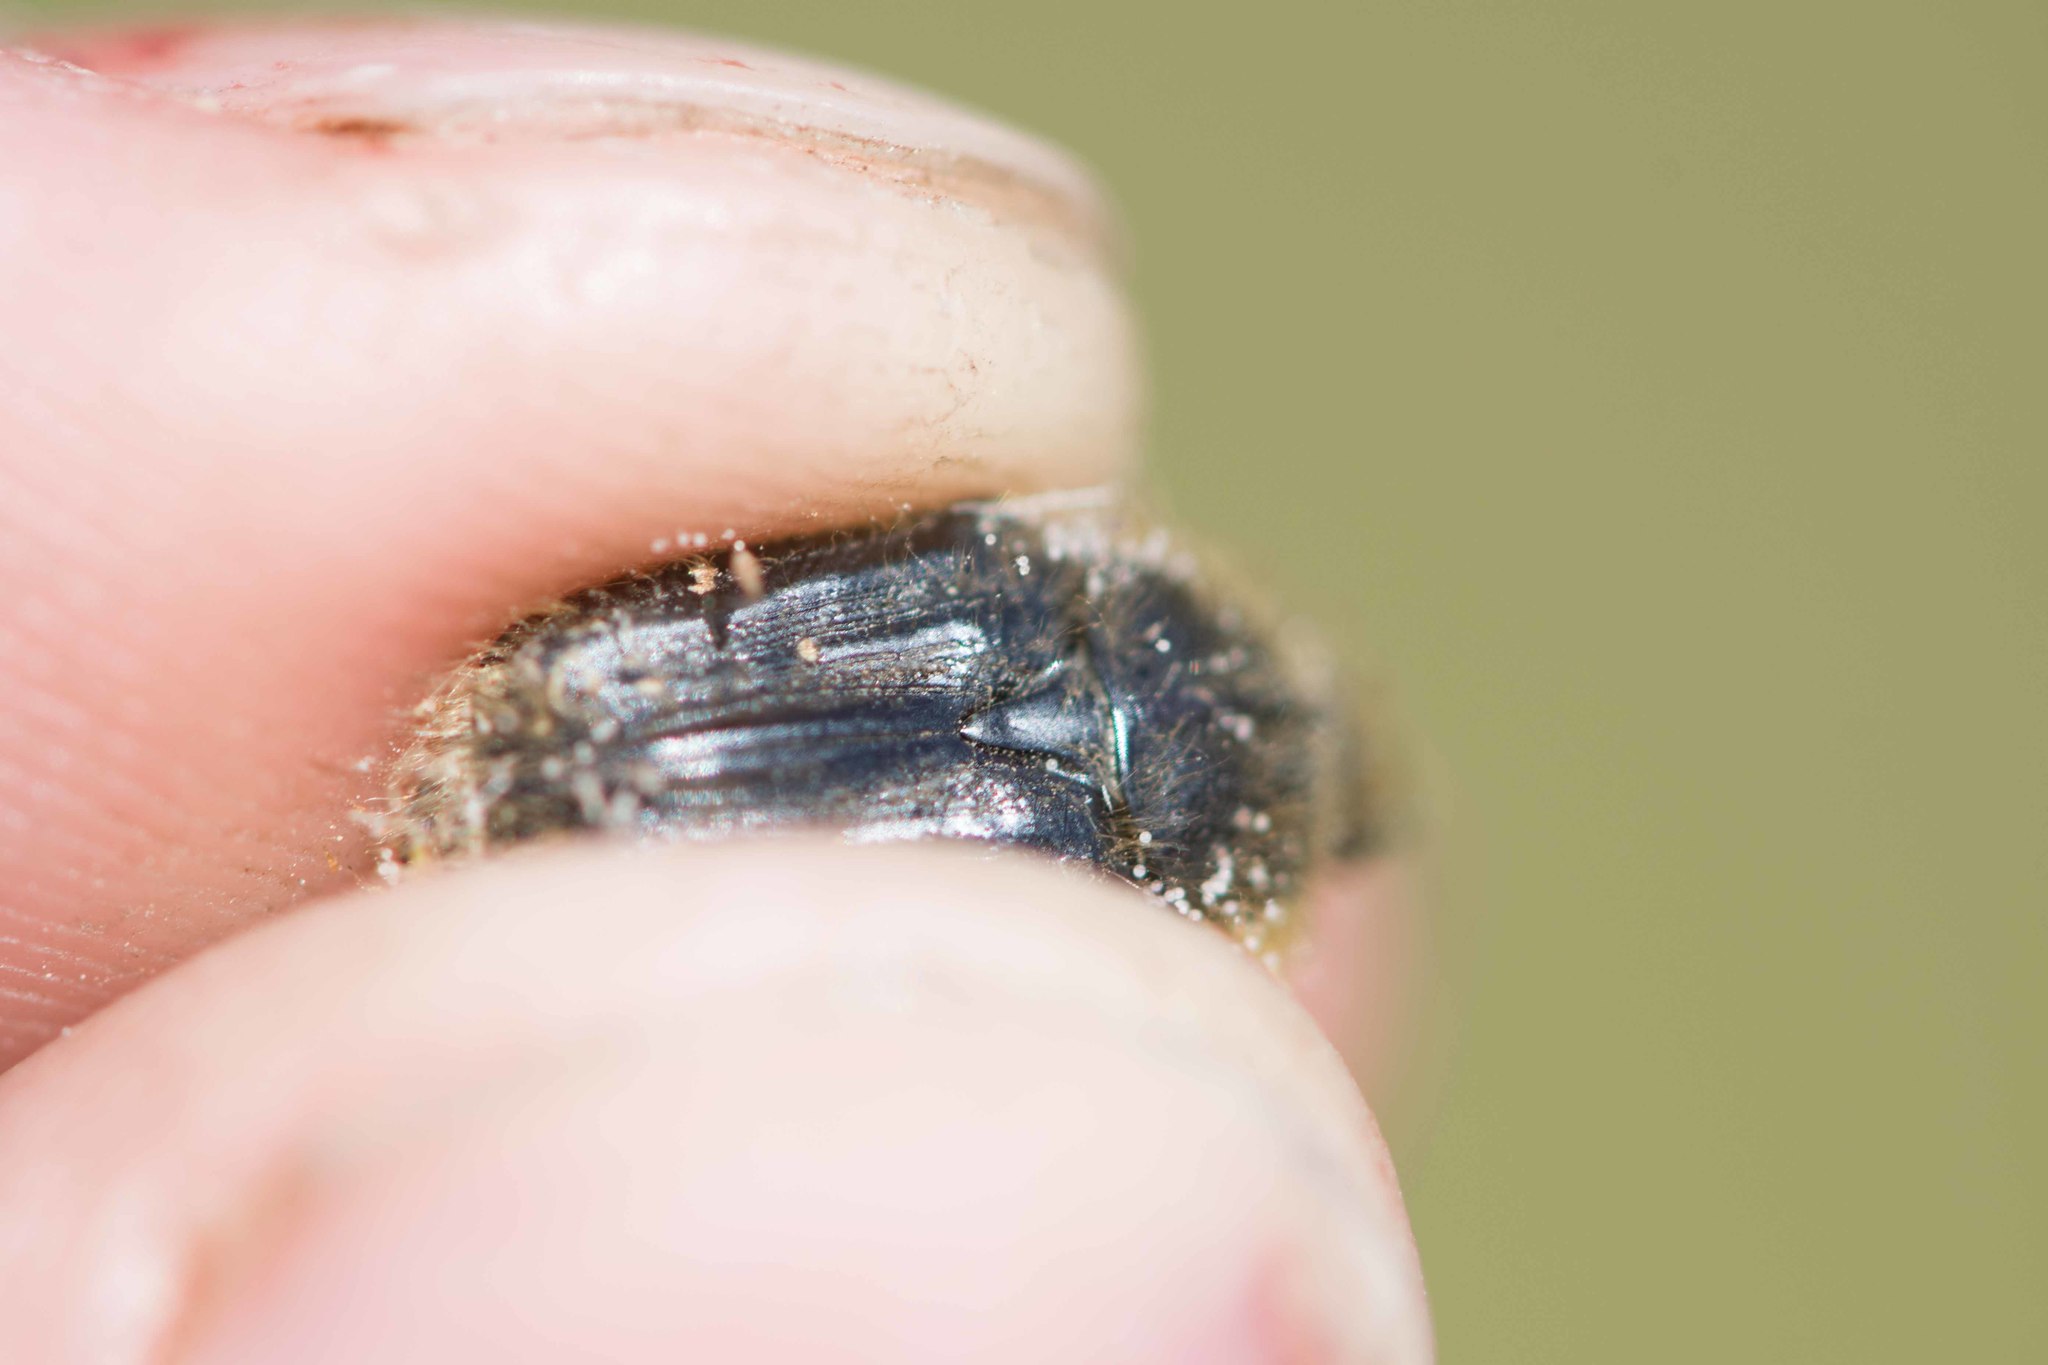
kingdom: Animalia
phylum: Arthropoda
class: Insecta
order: Coleoptera
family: Scarabaeidae
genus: Tropinota
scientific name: Tropinota squalida
